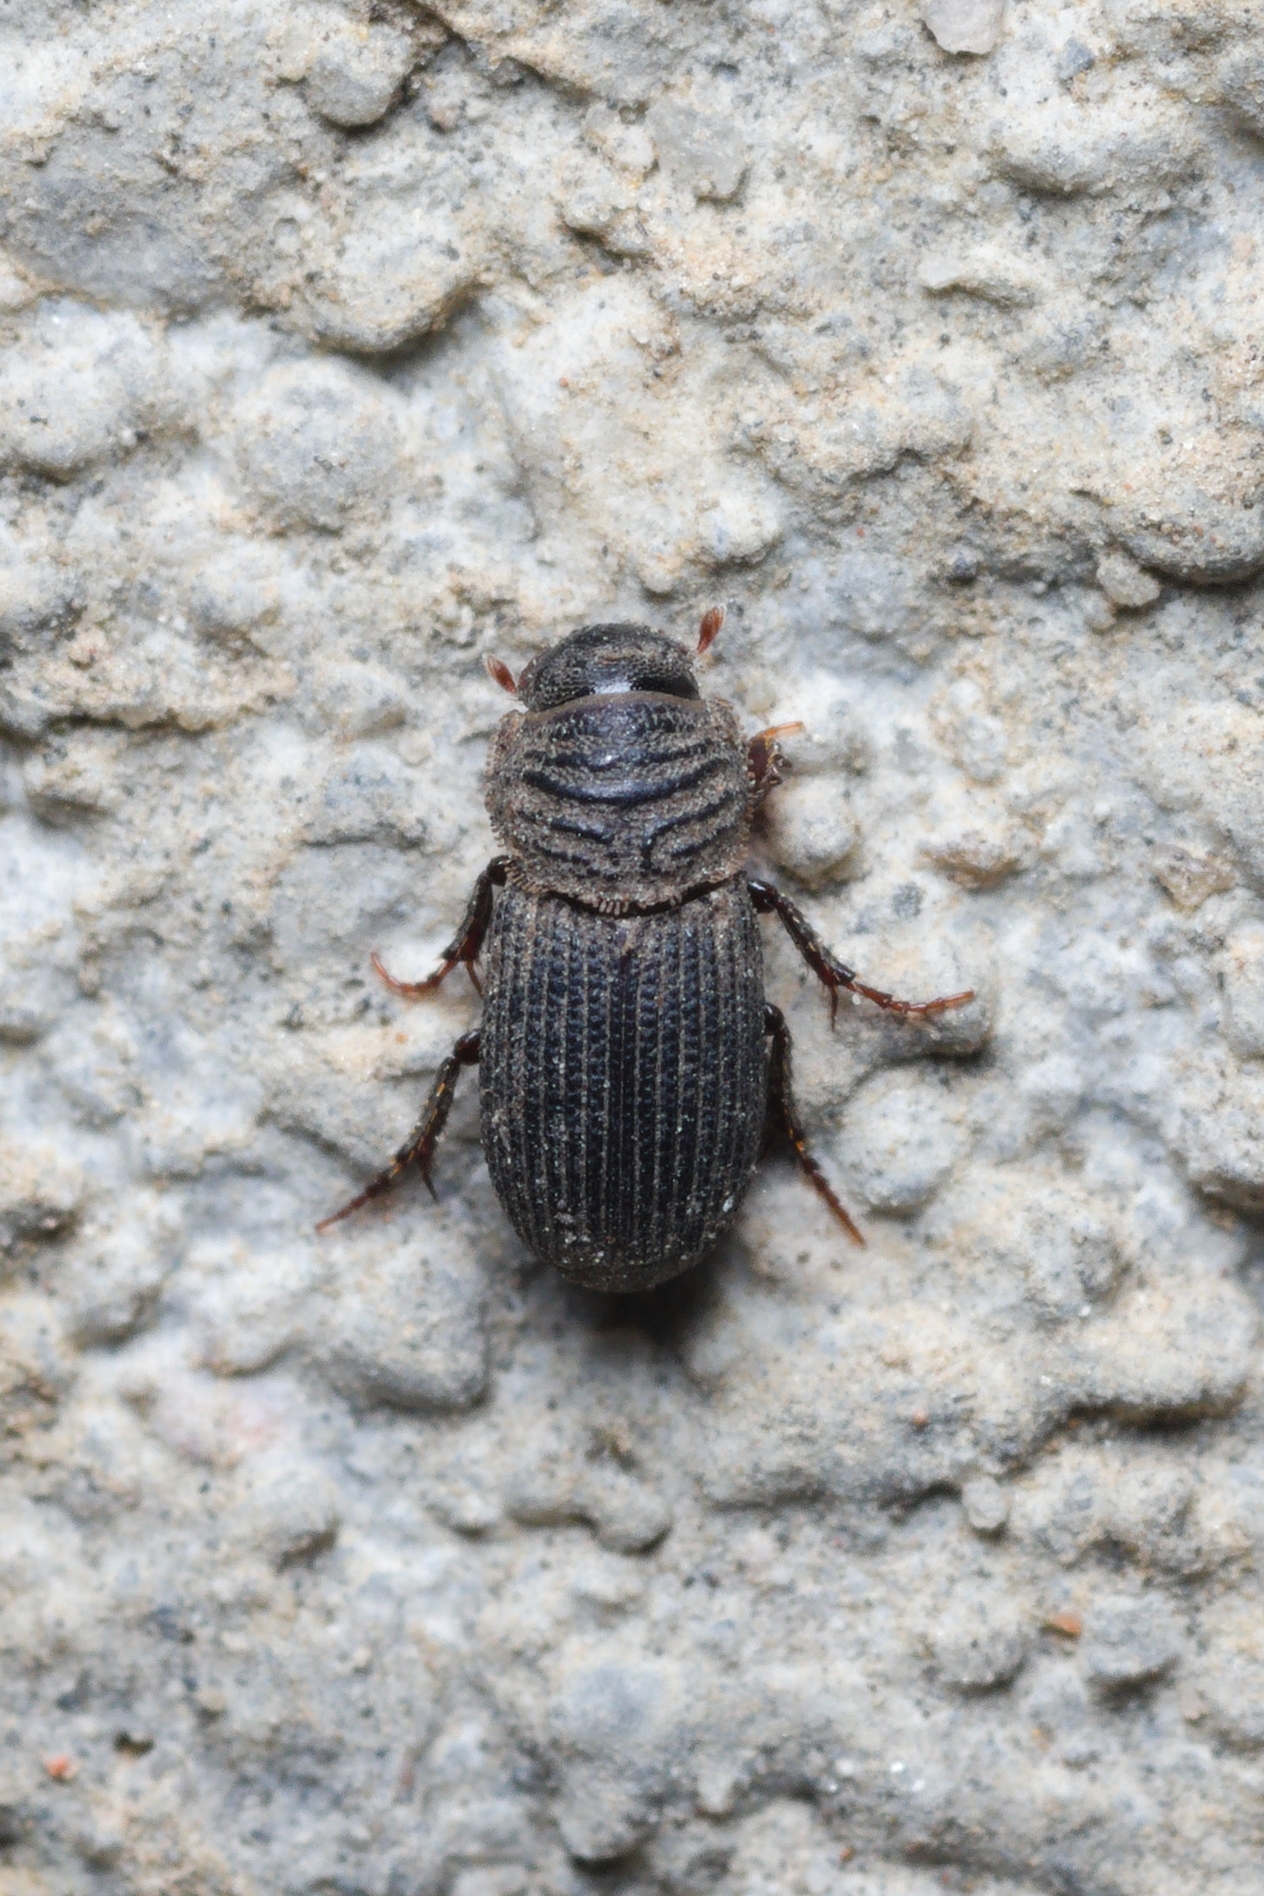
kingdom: Animalia
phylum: Arthropoda
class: Insecta
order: Coleoptera
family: Scarabaeidae
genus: Rhyssemus
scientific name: Rhyssemus germanus
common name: Germany small dung beetle
